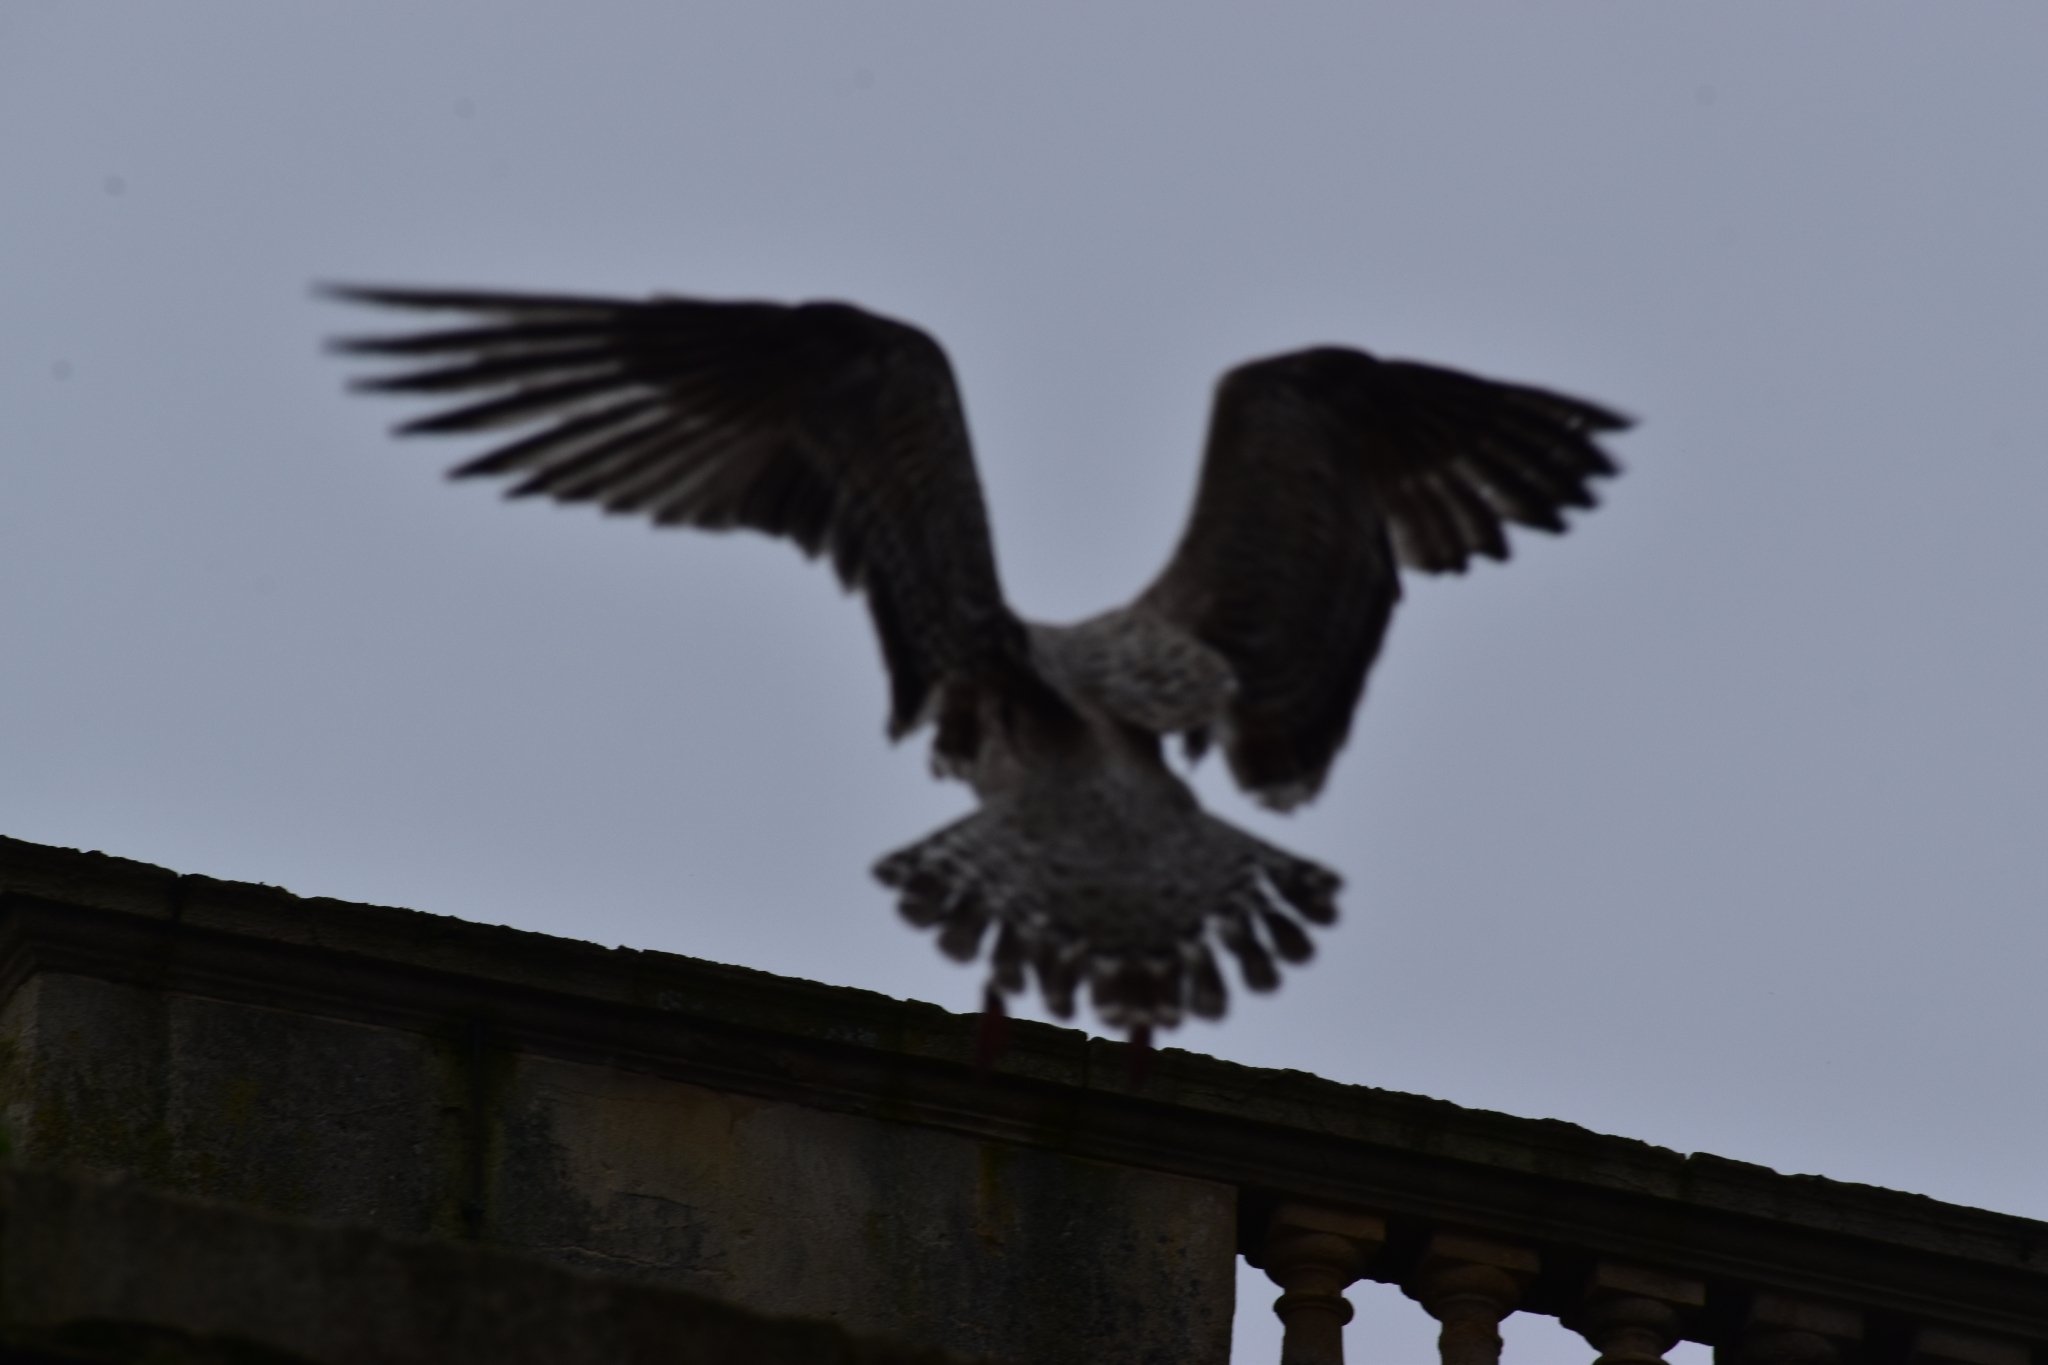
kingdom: Animalia
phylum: Chordata
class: Aves
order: Charadriiformes
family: Laridae
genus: Larus
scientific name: Larus argentatus
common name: Herring gull
